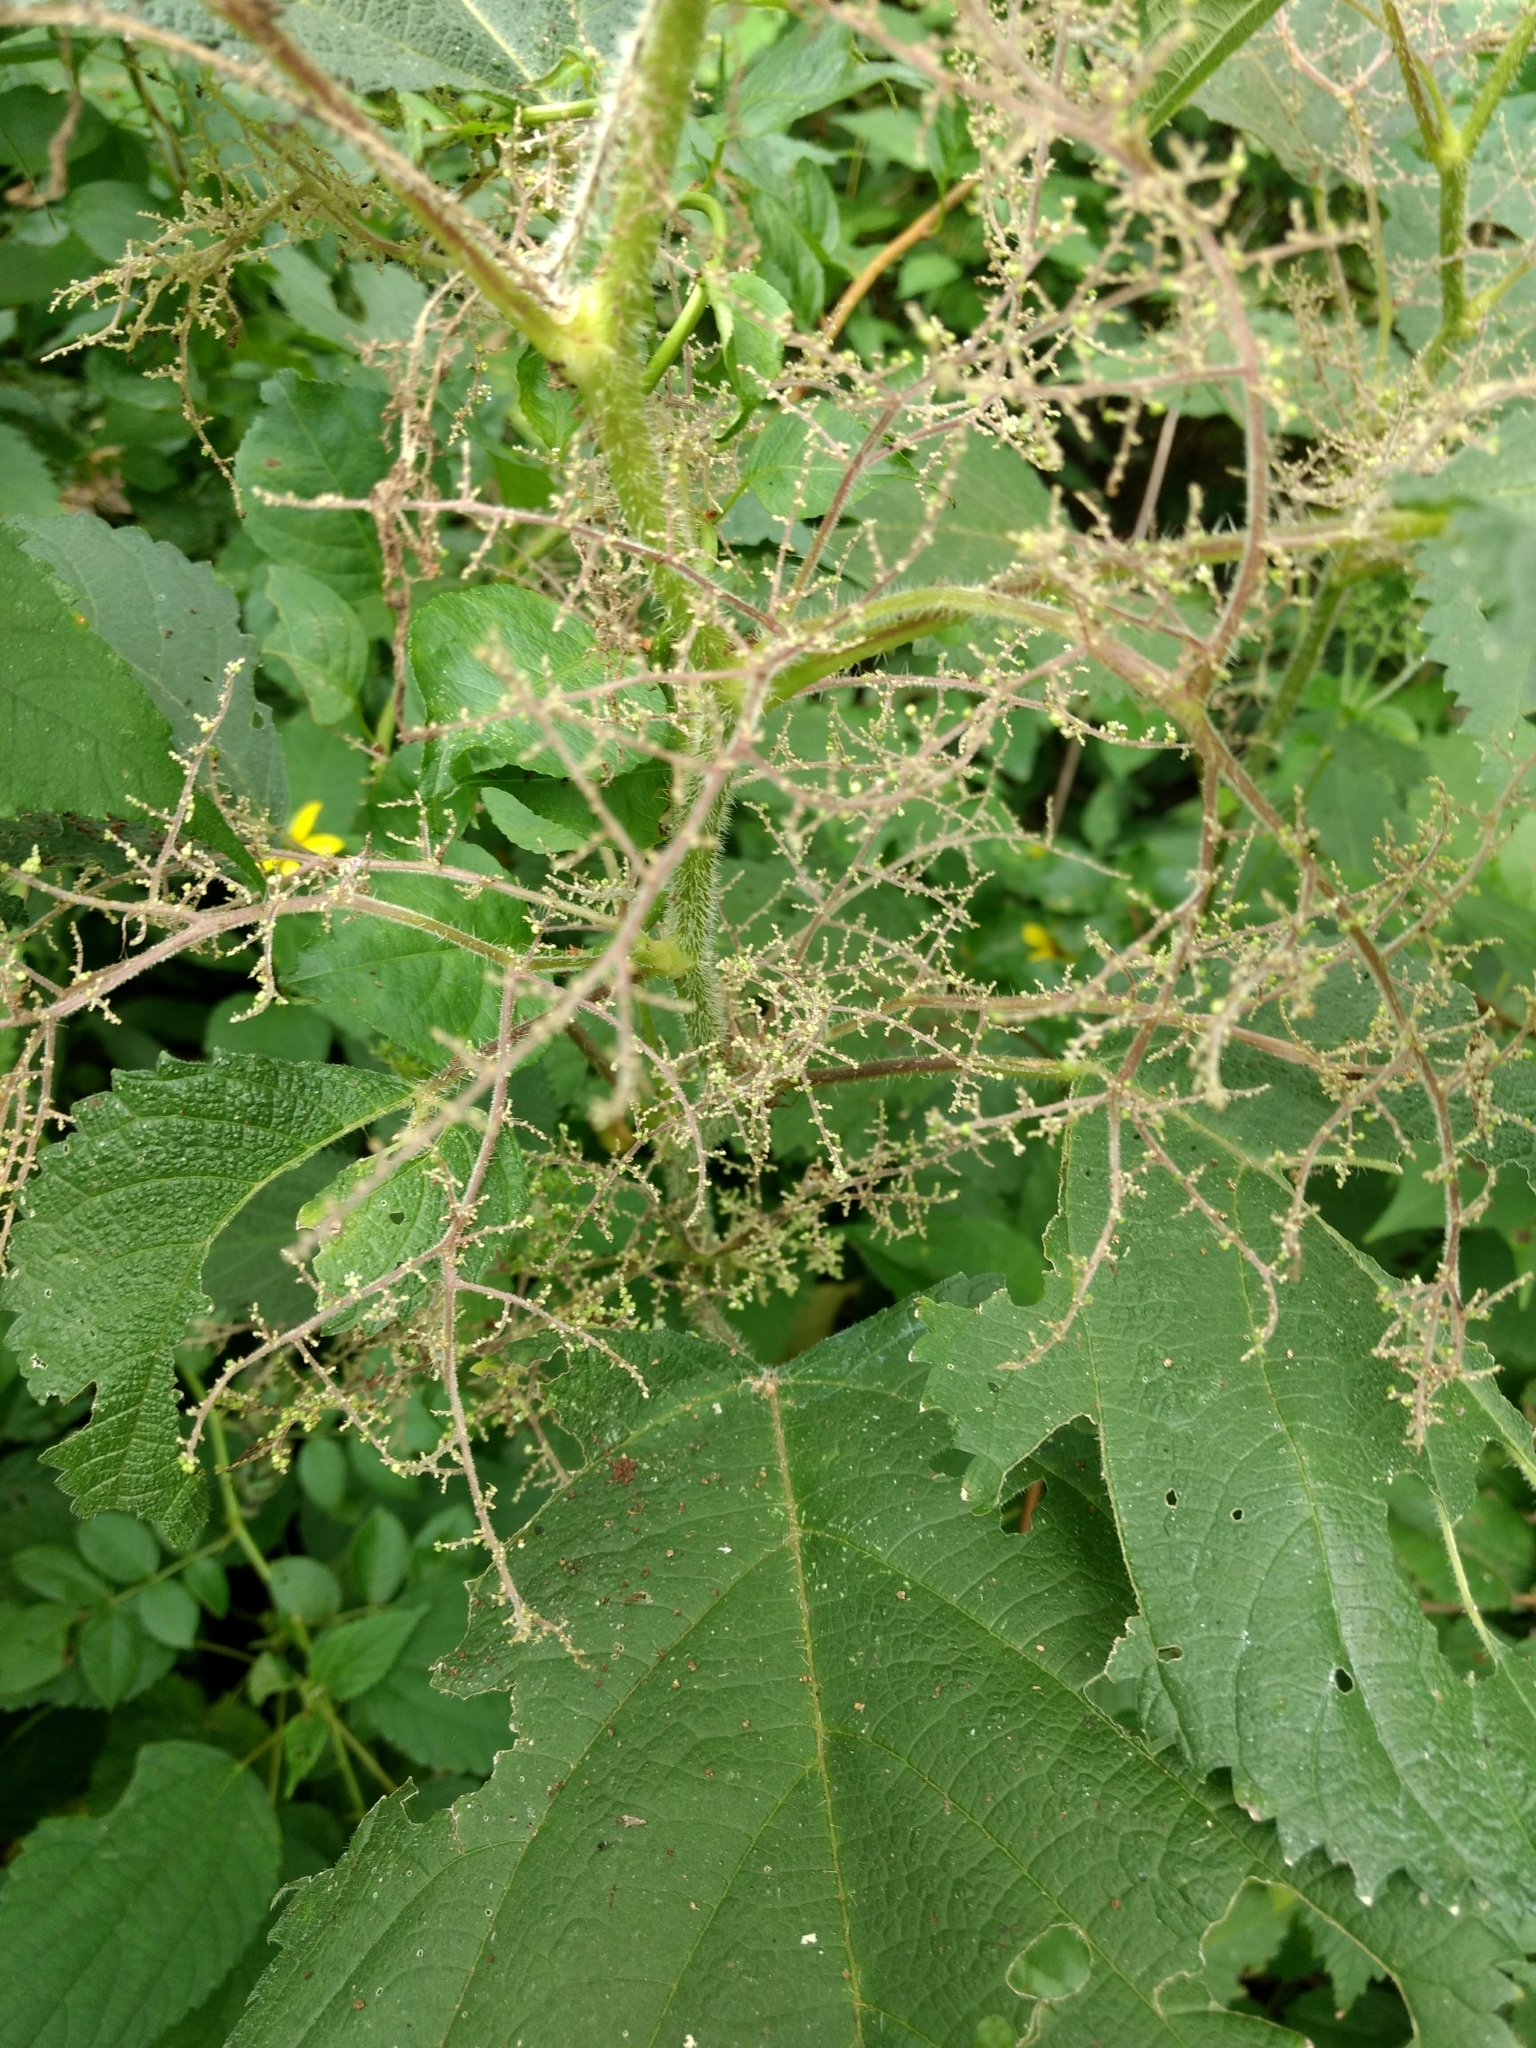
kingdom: Plantae
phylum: Tracheophyta
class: Magnoliopsida
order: Rosales
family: Urticaceae
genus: Laportea
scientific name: Laportea canadensis
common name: Canada nettle
